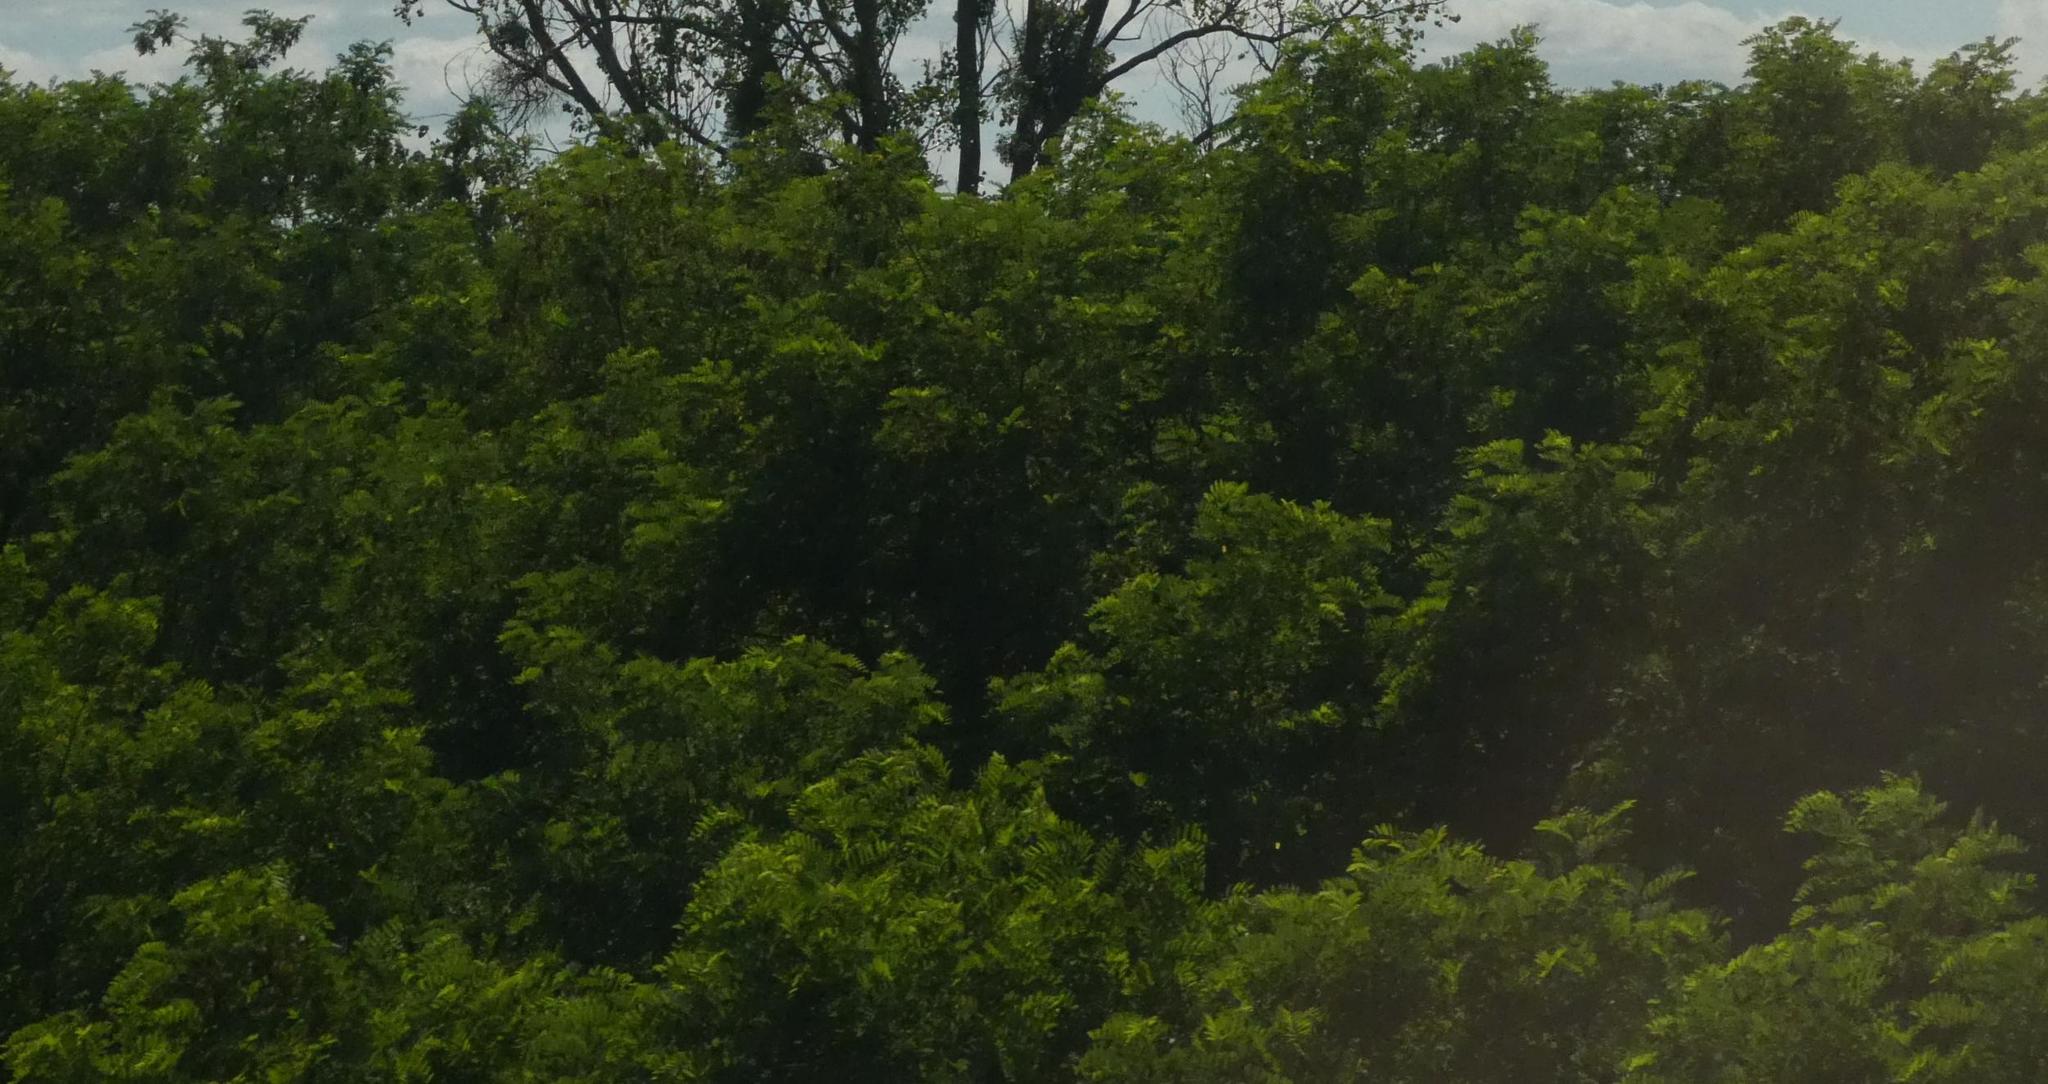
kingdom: Plantae
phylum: Tracheophyta
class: Magnoliopsida
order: Fabales
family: Fabaceae
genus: Robinia
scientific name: Robinia pseudoacacia
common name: Black locust
